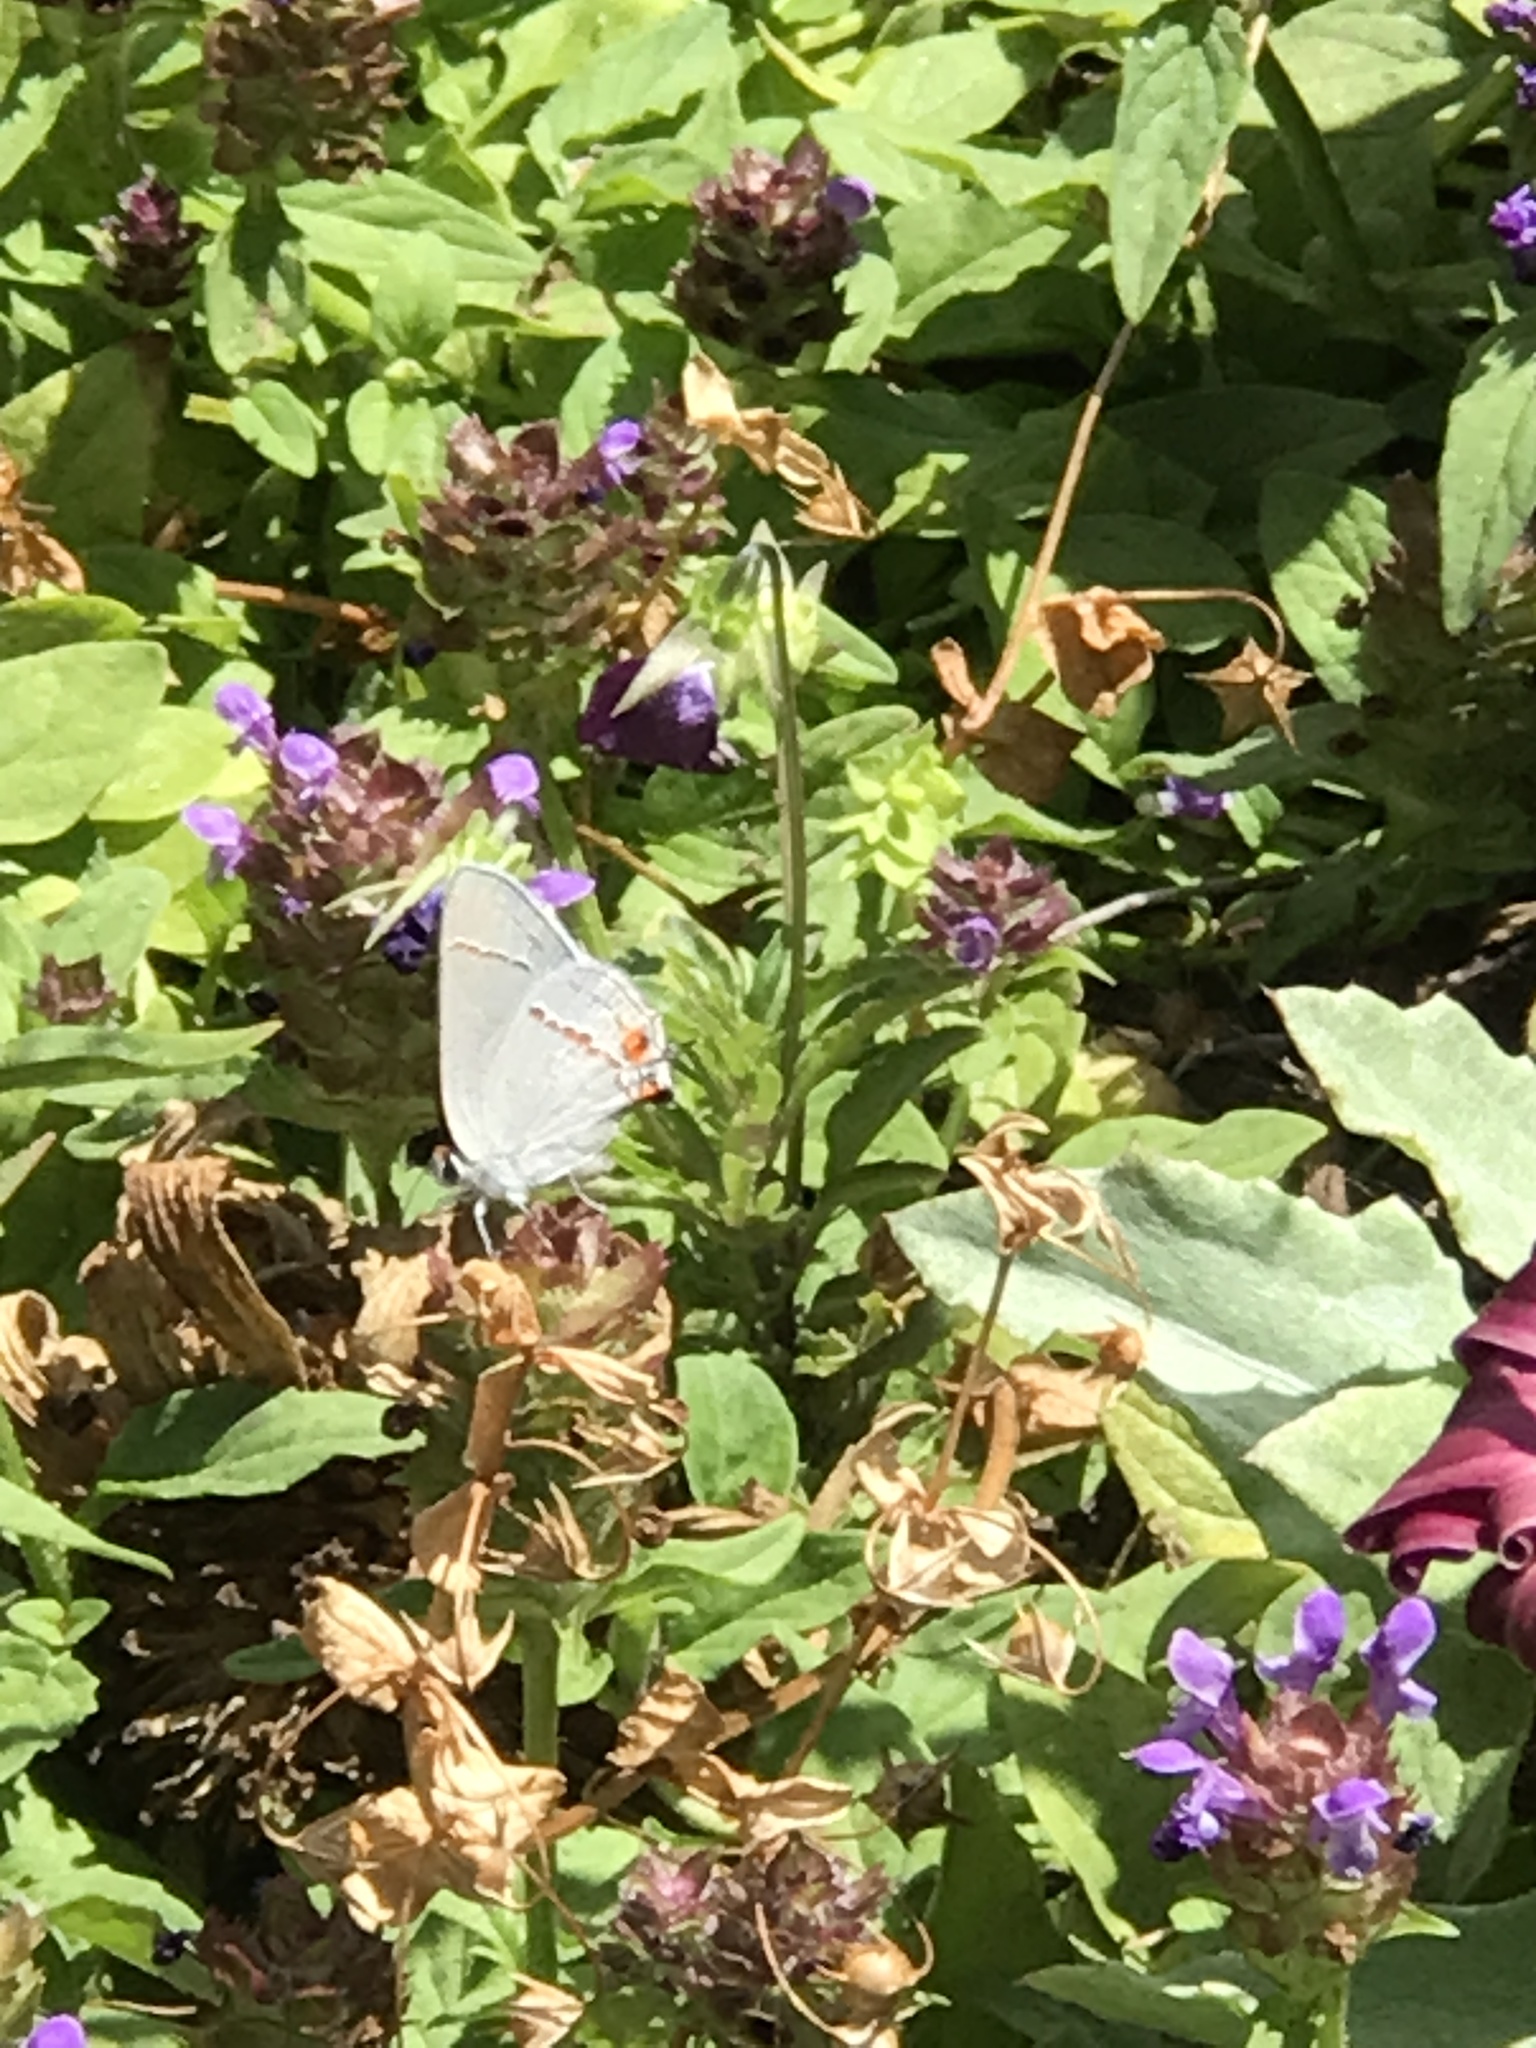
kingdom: Animalia
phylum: Arthropoda
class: Insecta
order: Lepidoptera
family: Lycaenidae
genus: Strymon
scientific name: Strymon melinus
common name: Gray hairstreak
